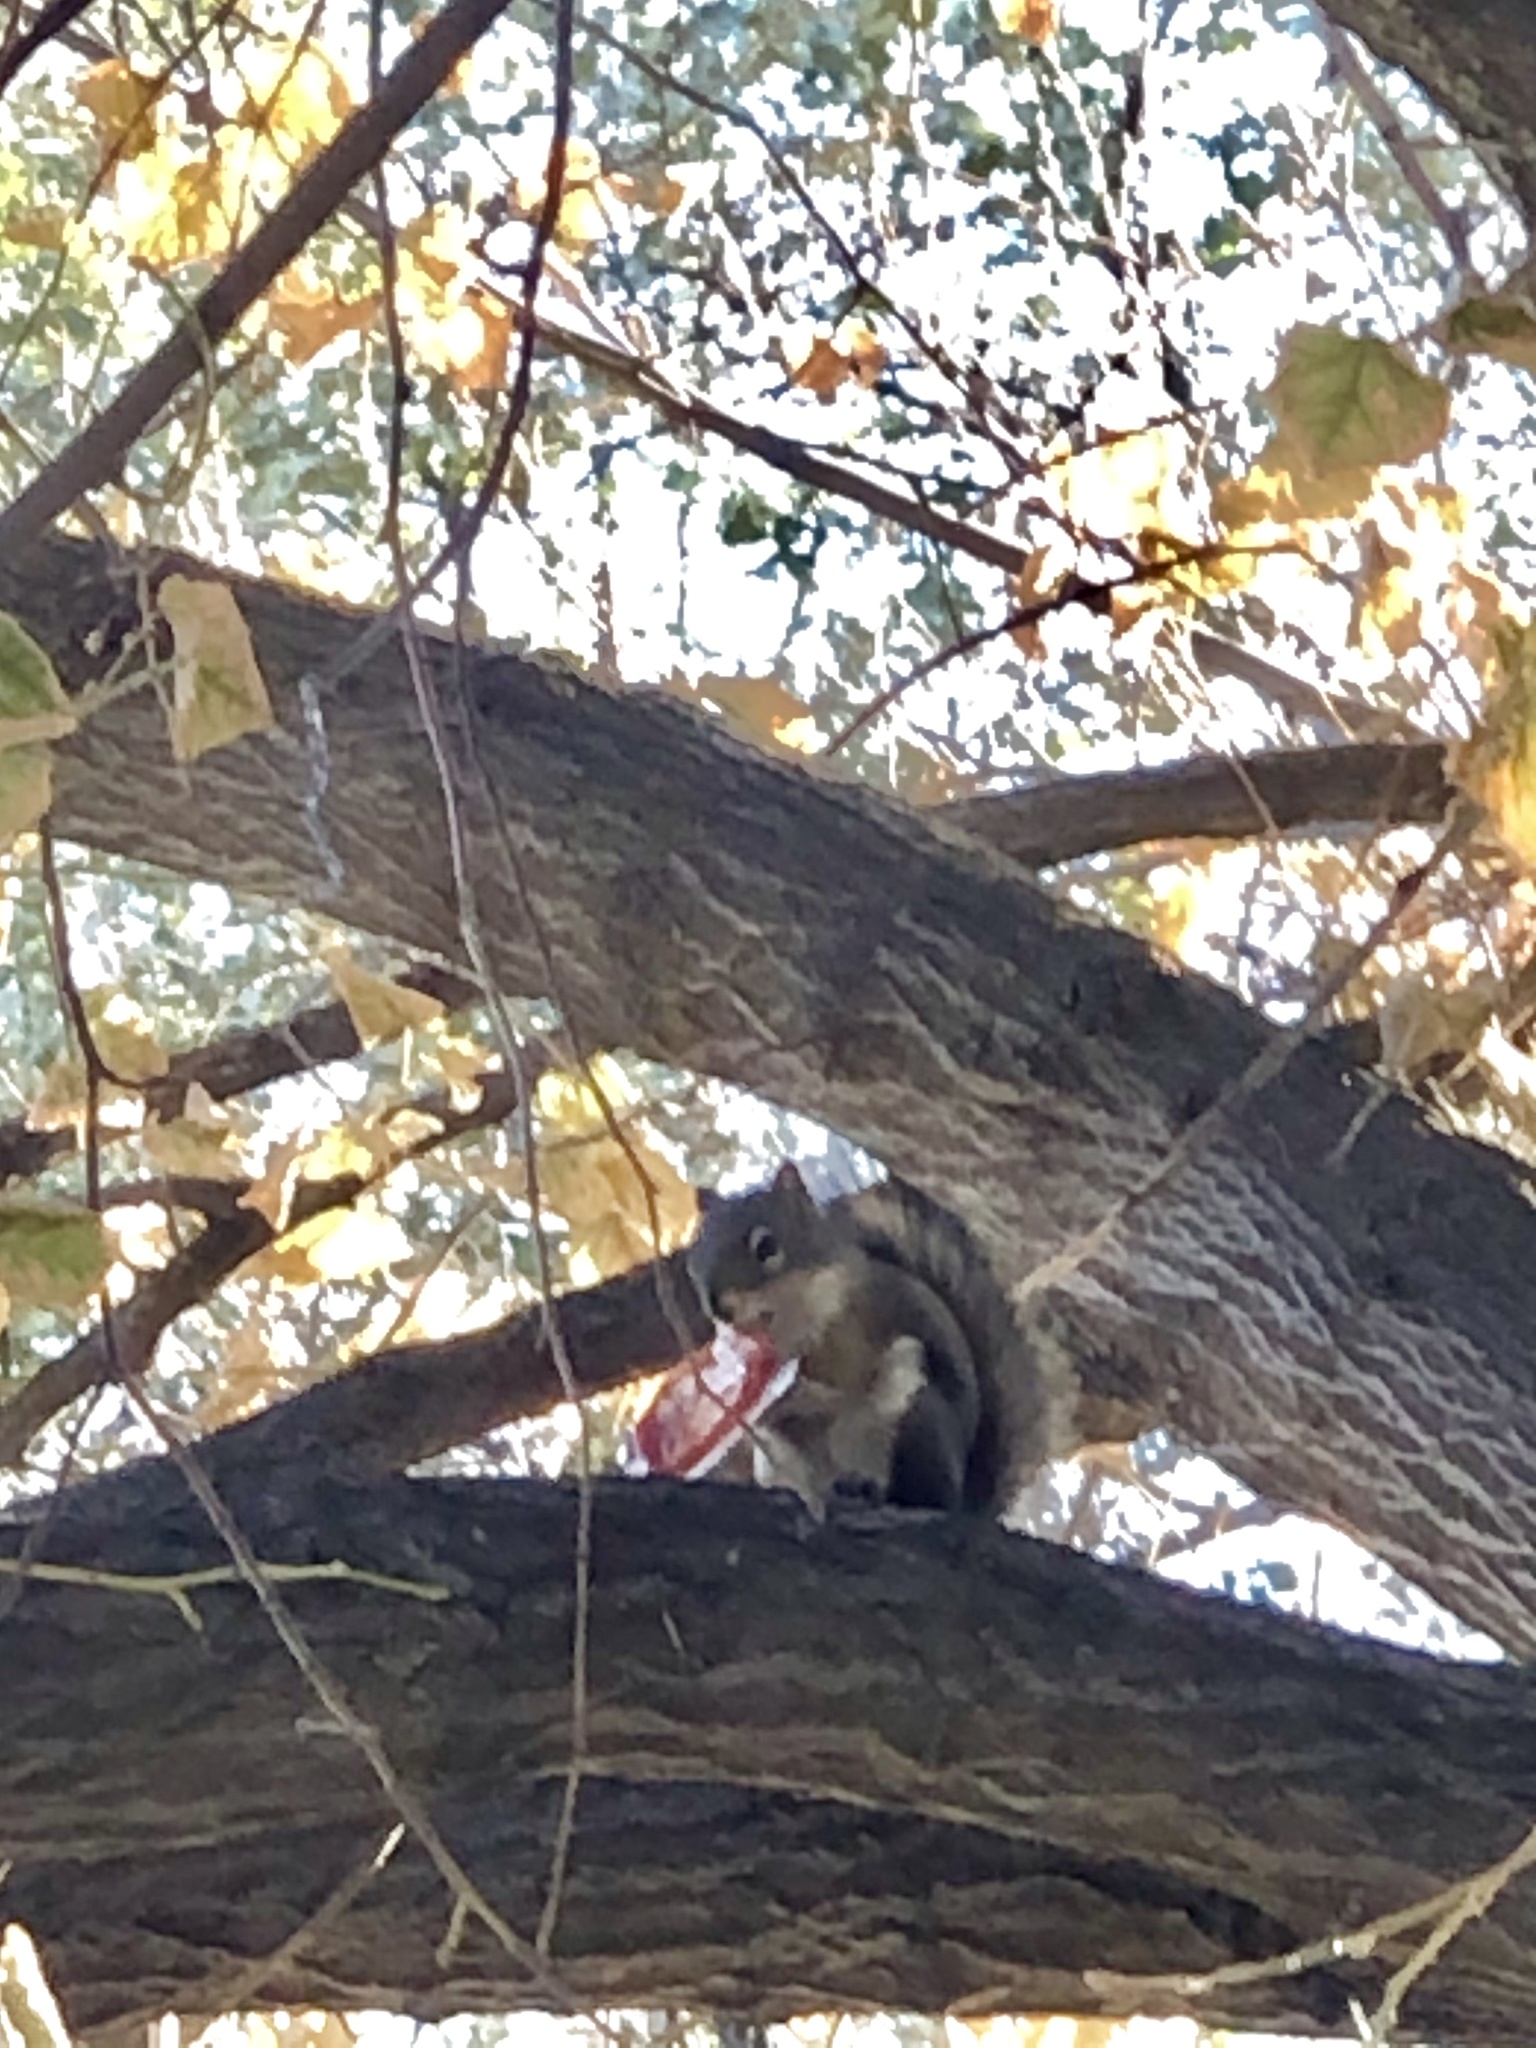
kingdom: Animalia
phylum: Chordata
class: Mammalia
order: Rodentia
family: Sciuridae
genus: Tamiasciurus
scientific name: Tamiasciurus hudsonicus
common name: Red squirrel
